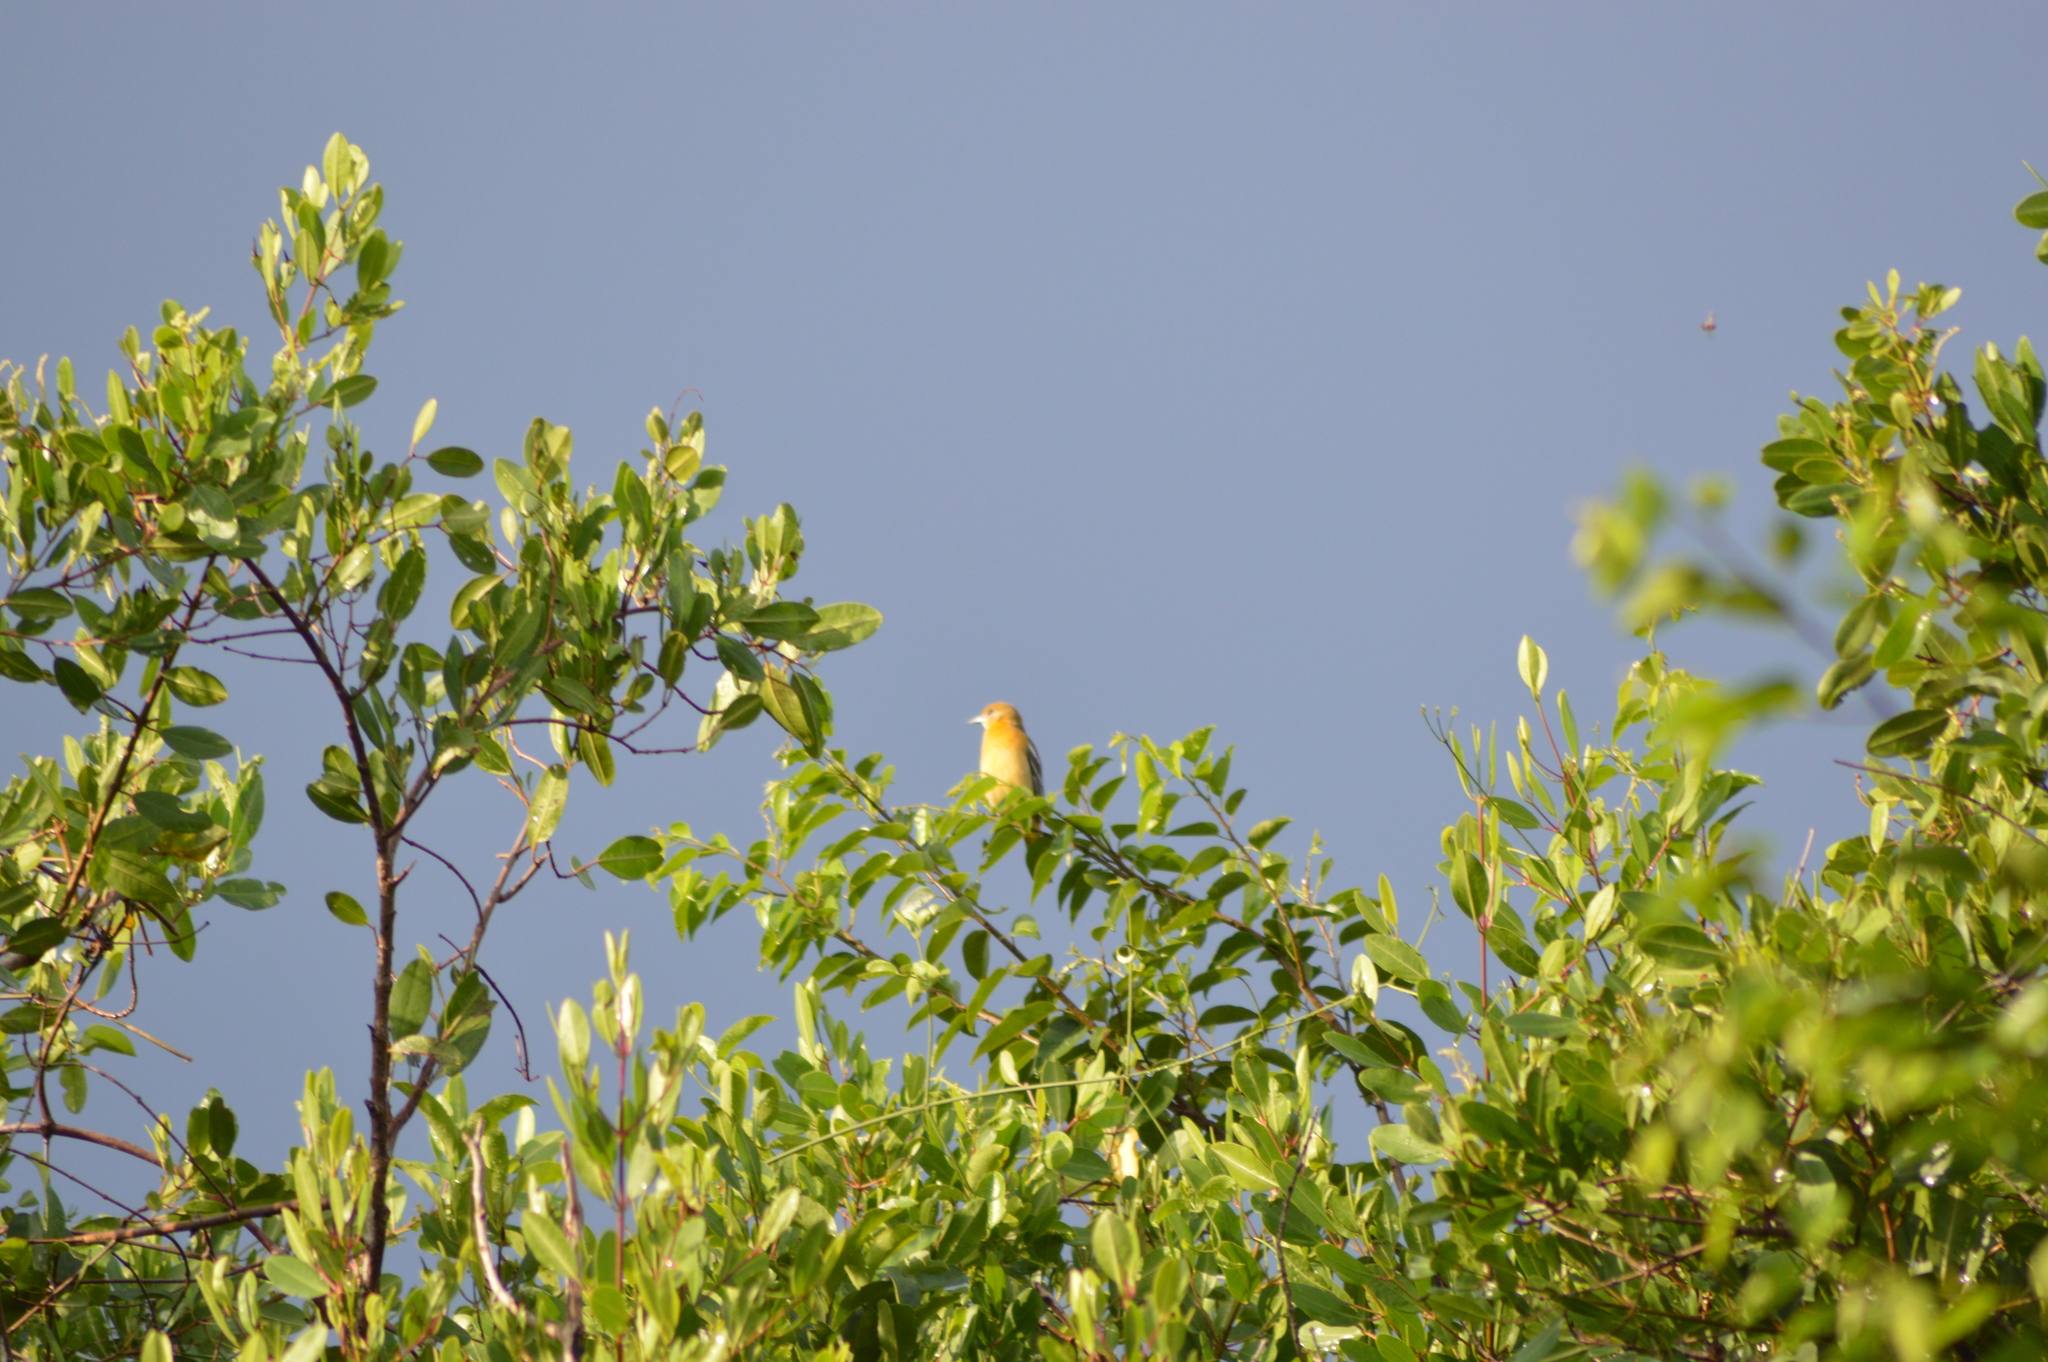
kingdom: Animalia
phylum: Chordata
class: Aves
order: Passeriformes
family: Icteridae
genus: Icterus
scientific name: Icterus galbula
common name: Baltimore oriole
